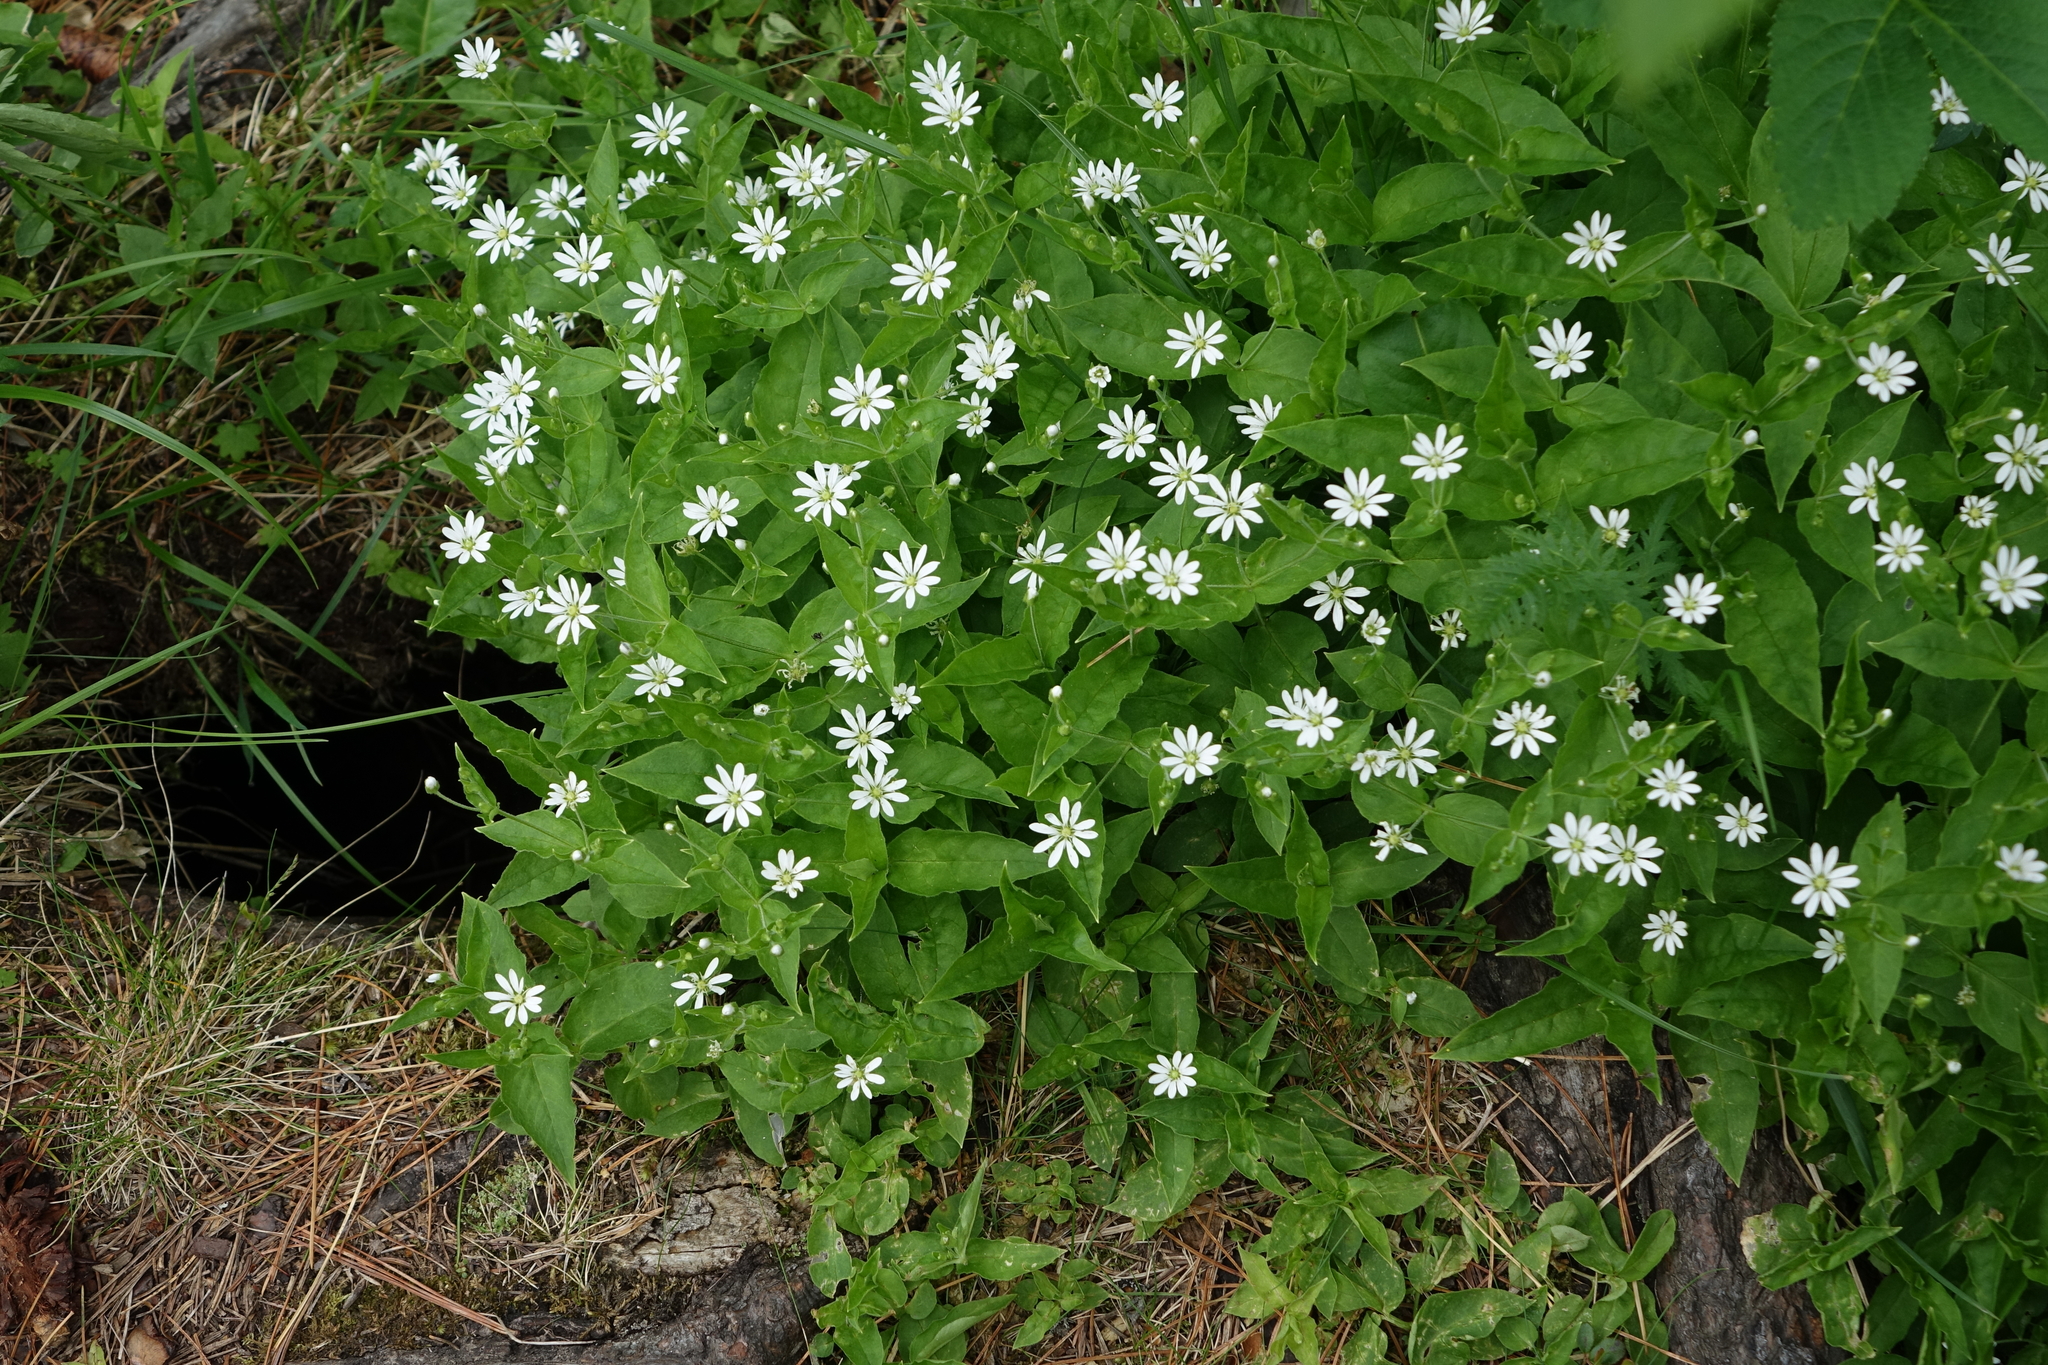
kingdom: Plantae
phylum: Tracheophyta
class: Magnoliopsida
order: Caryophyllales
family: Caryophyllaceae
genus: Stellaria
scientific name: Stellaria bungeana
